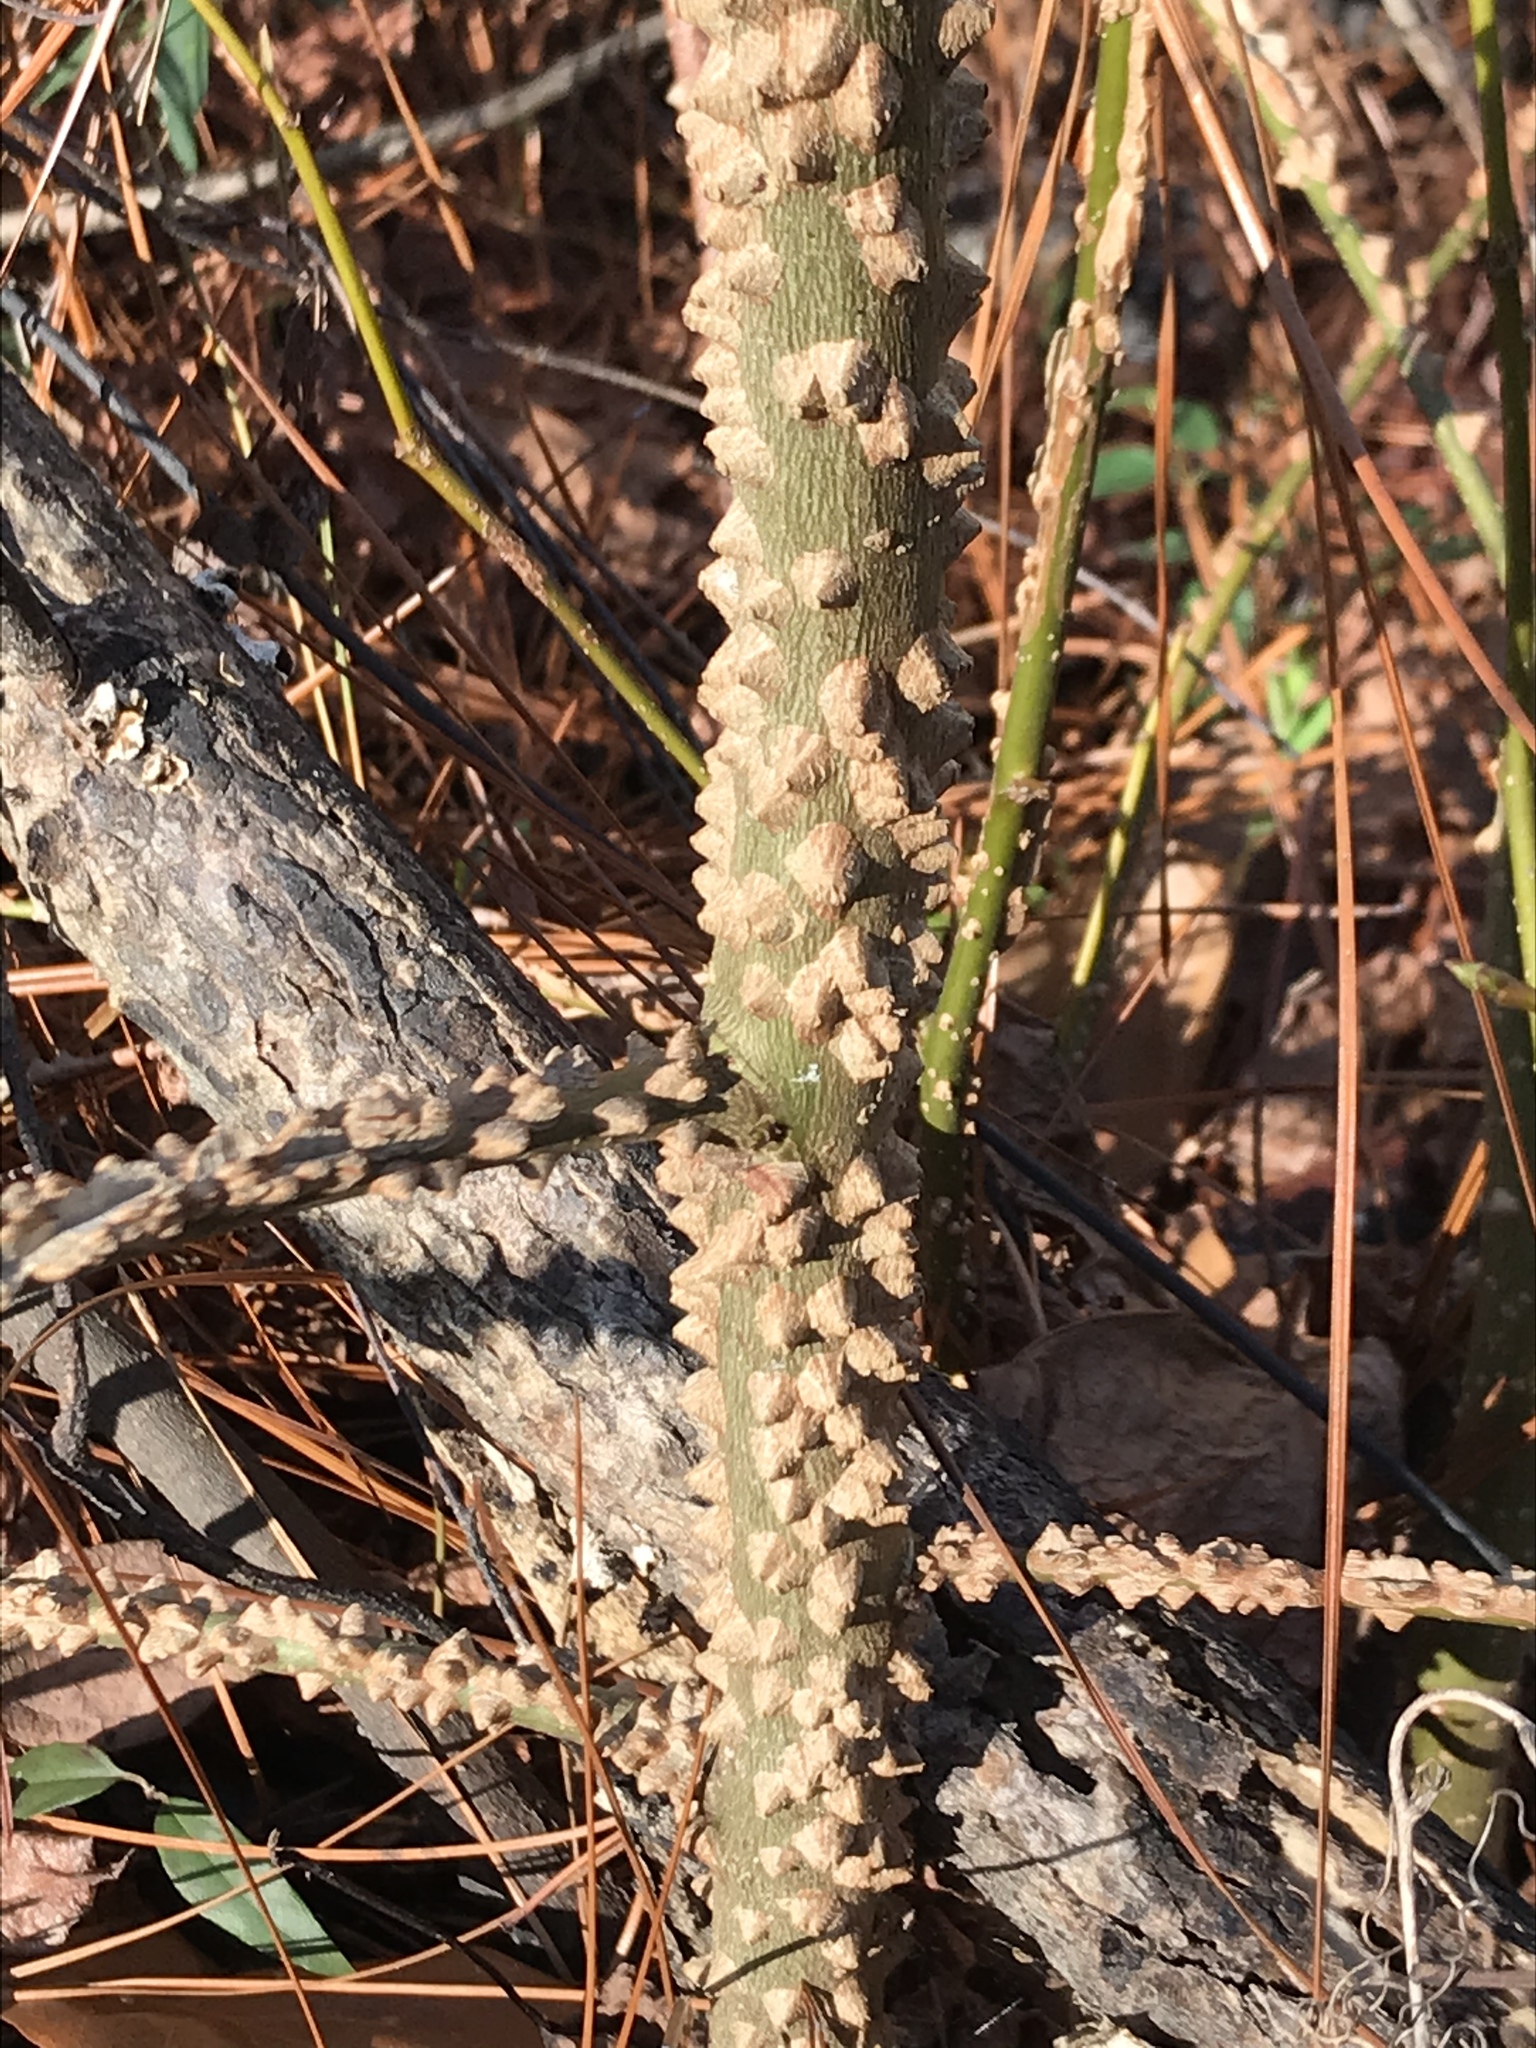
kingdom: Plantae
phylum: Tracheophyta
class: Magnoliopsida
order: Sapindales
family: Rutaceae
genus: Zanthoxylum
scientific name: Zanthoxylum clava-herculis
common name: Hercules'-club
